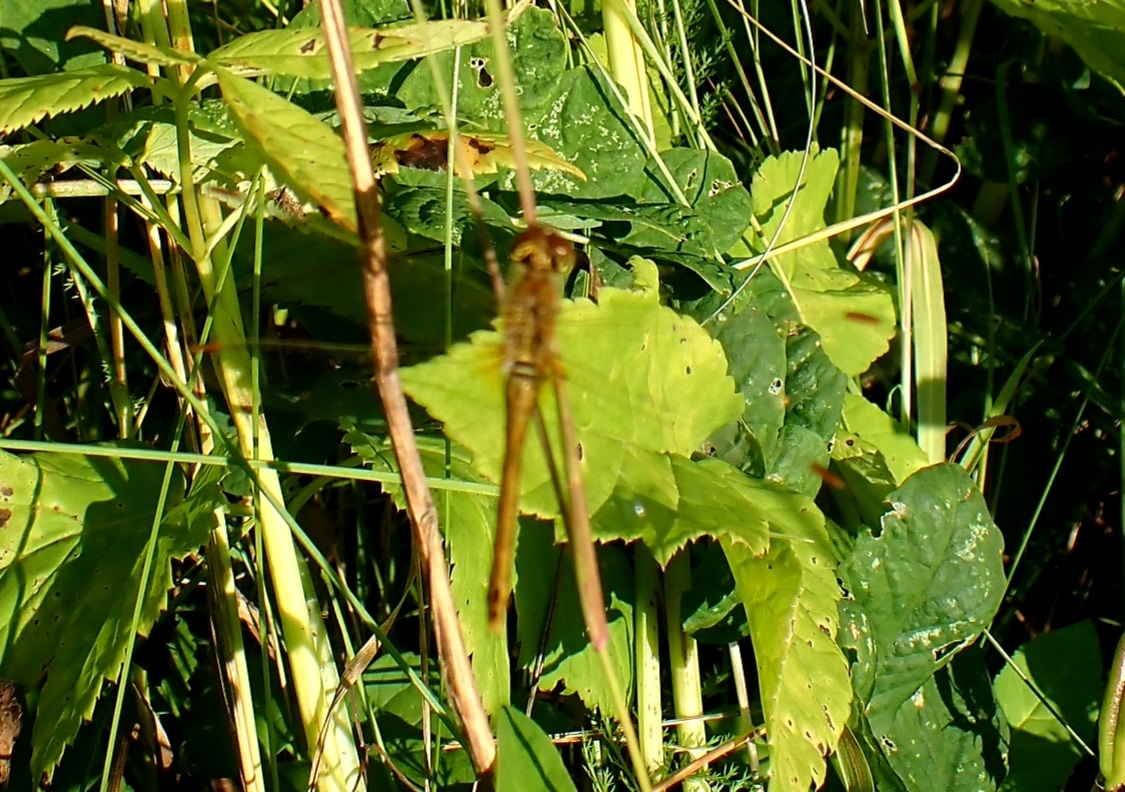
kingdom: Animalia
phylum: Arthropoda
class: Insecta
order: Odonata
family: Libellulidae
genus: Sympetrum
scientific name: Sympetrum sanguineum
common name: Ruddy darter
